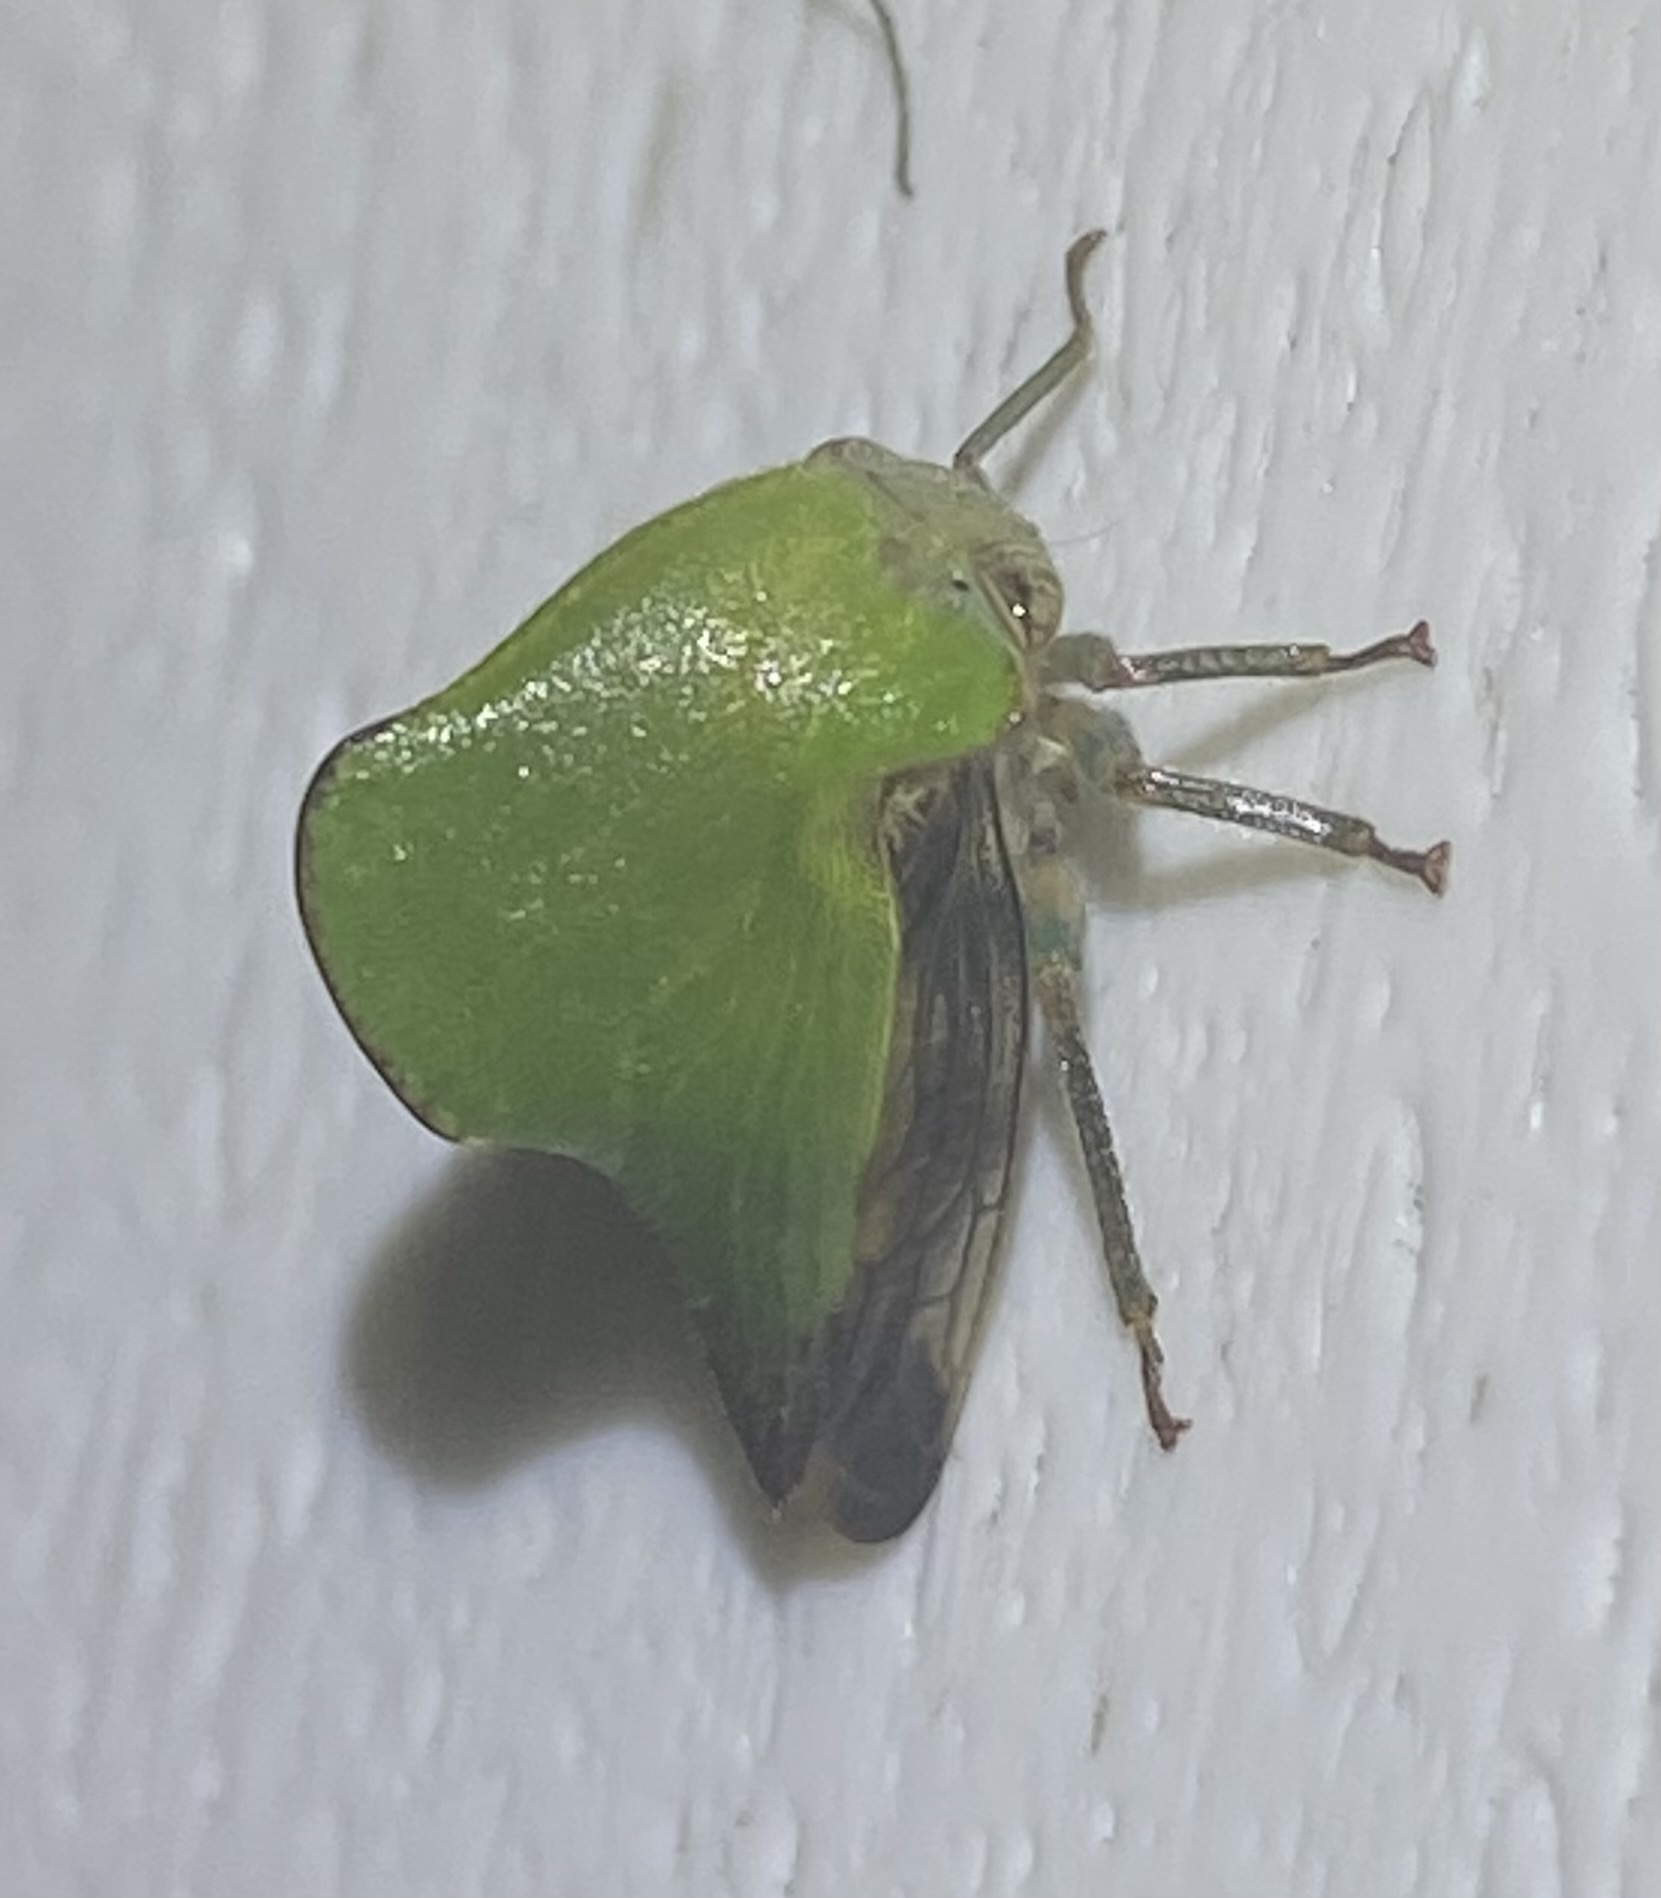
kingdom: Animalia
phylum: Arthropoda
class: Insecta
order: Hemiptera
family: Membracidae
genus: Helonica
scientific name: Helonica excelsa
